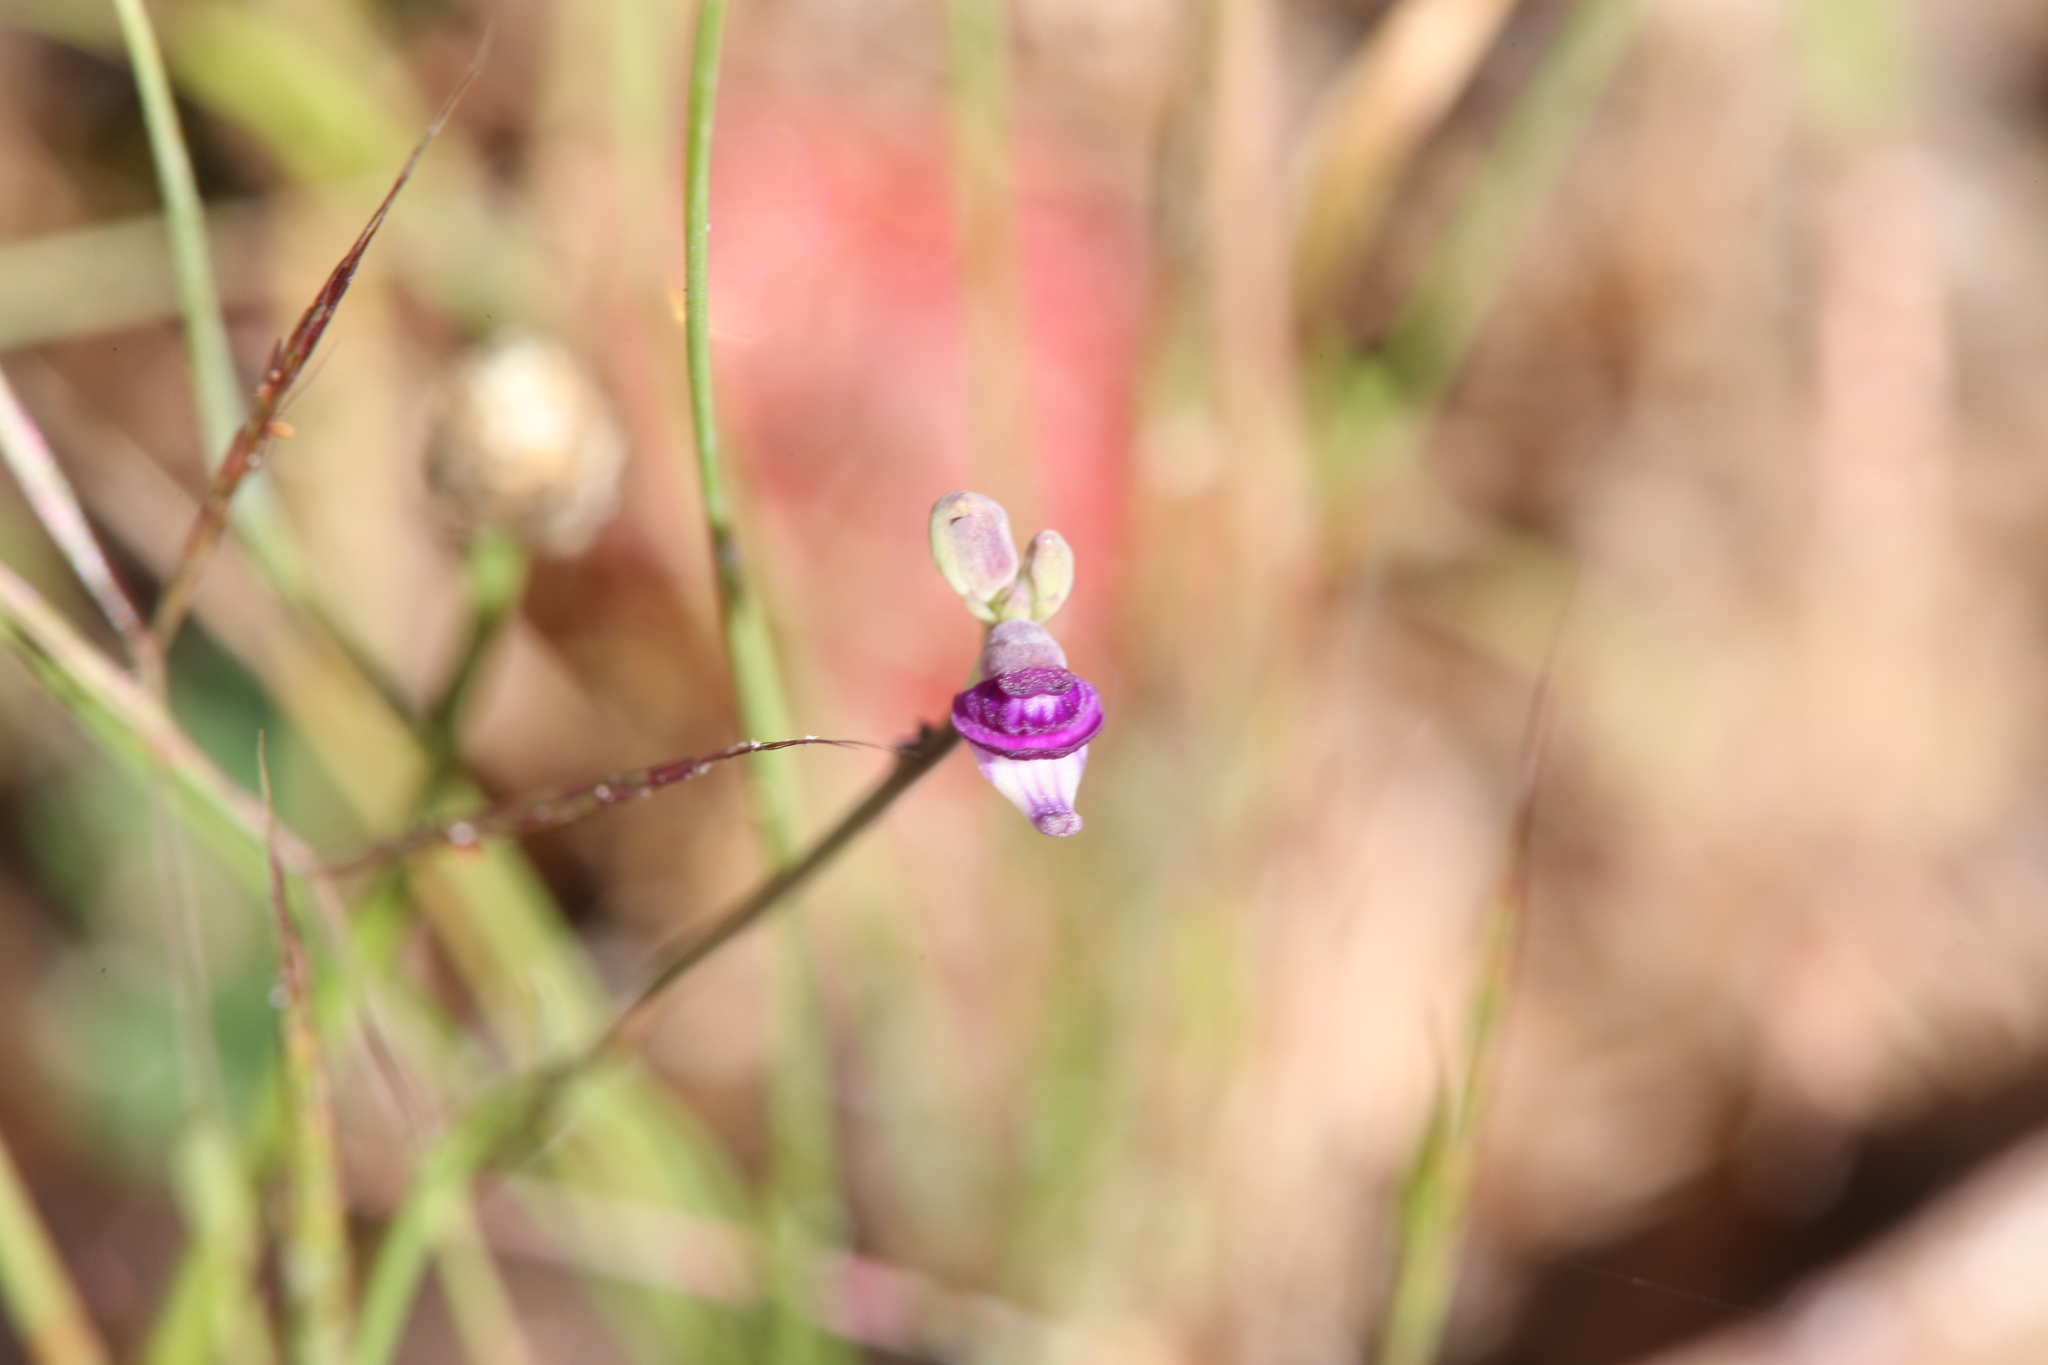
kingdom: Plantae
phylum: Tracheophyta
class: Magnoliopsida
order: Lamiales
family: Lentibulariaceae
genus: Utricularia
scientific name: Utricularia caerulea
